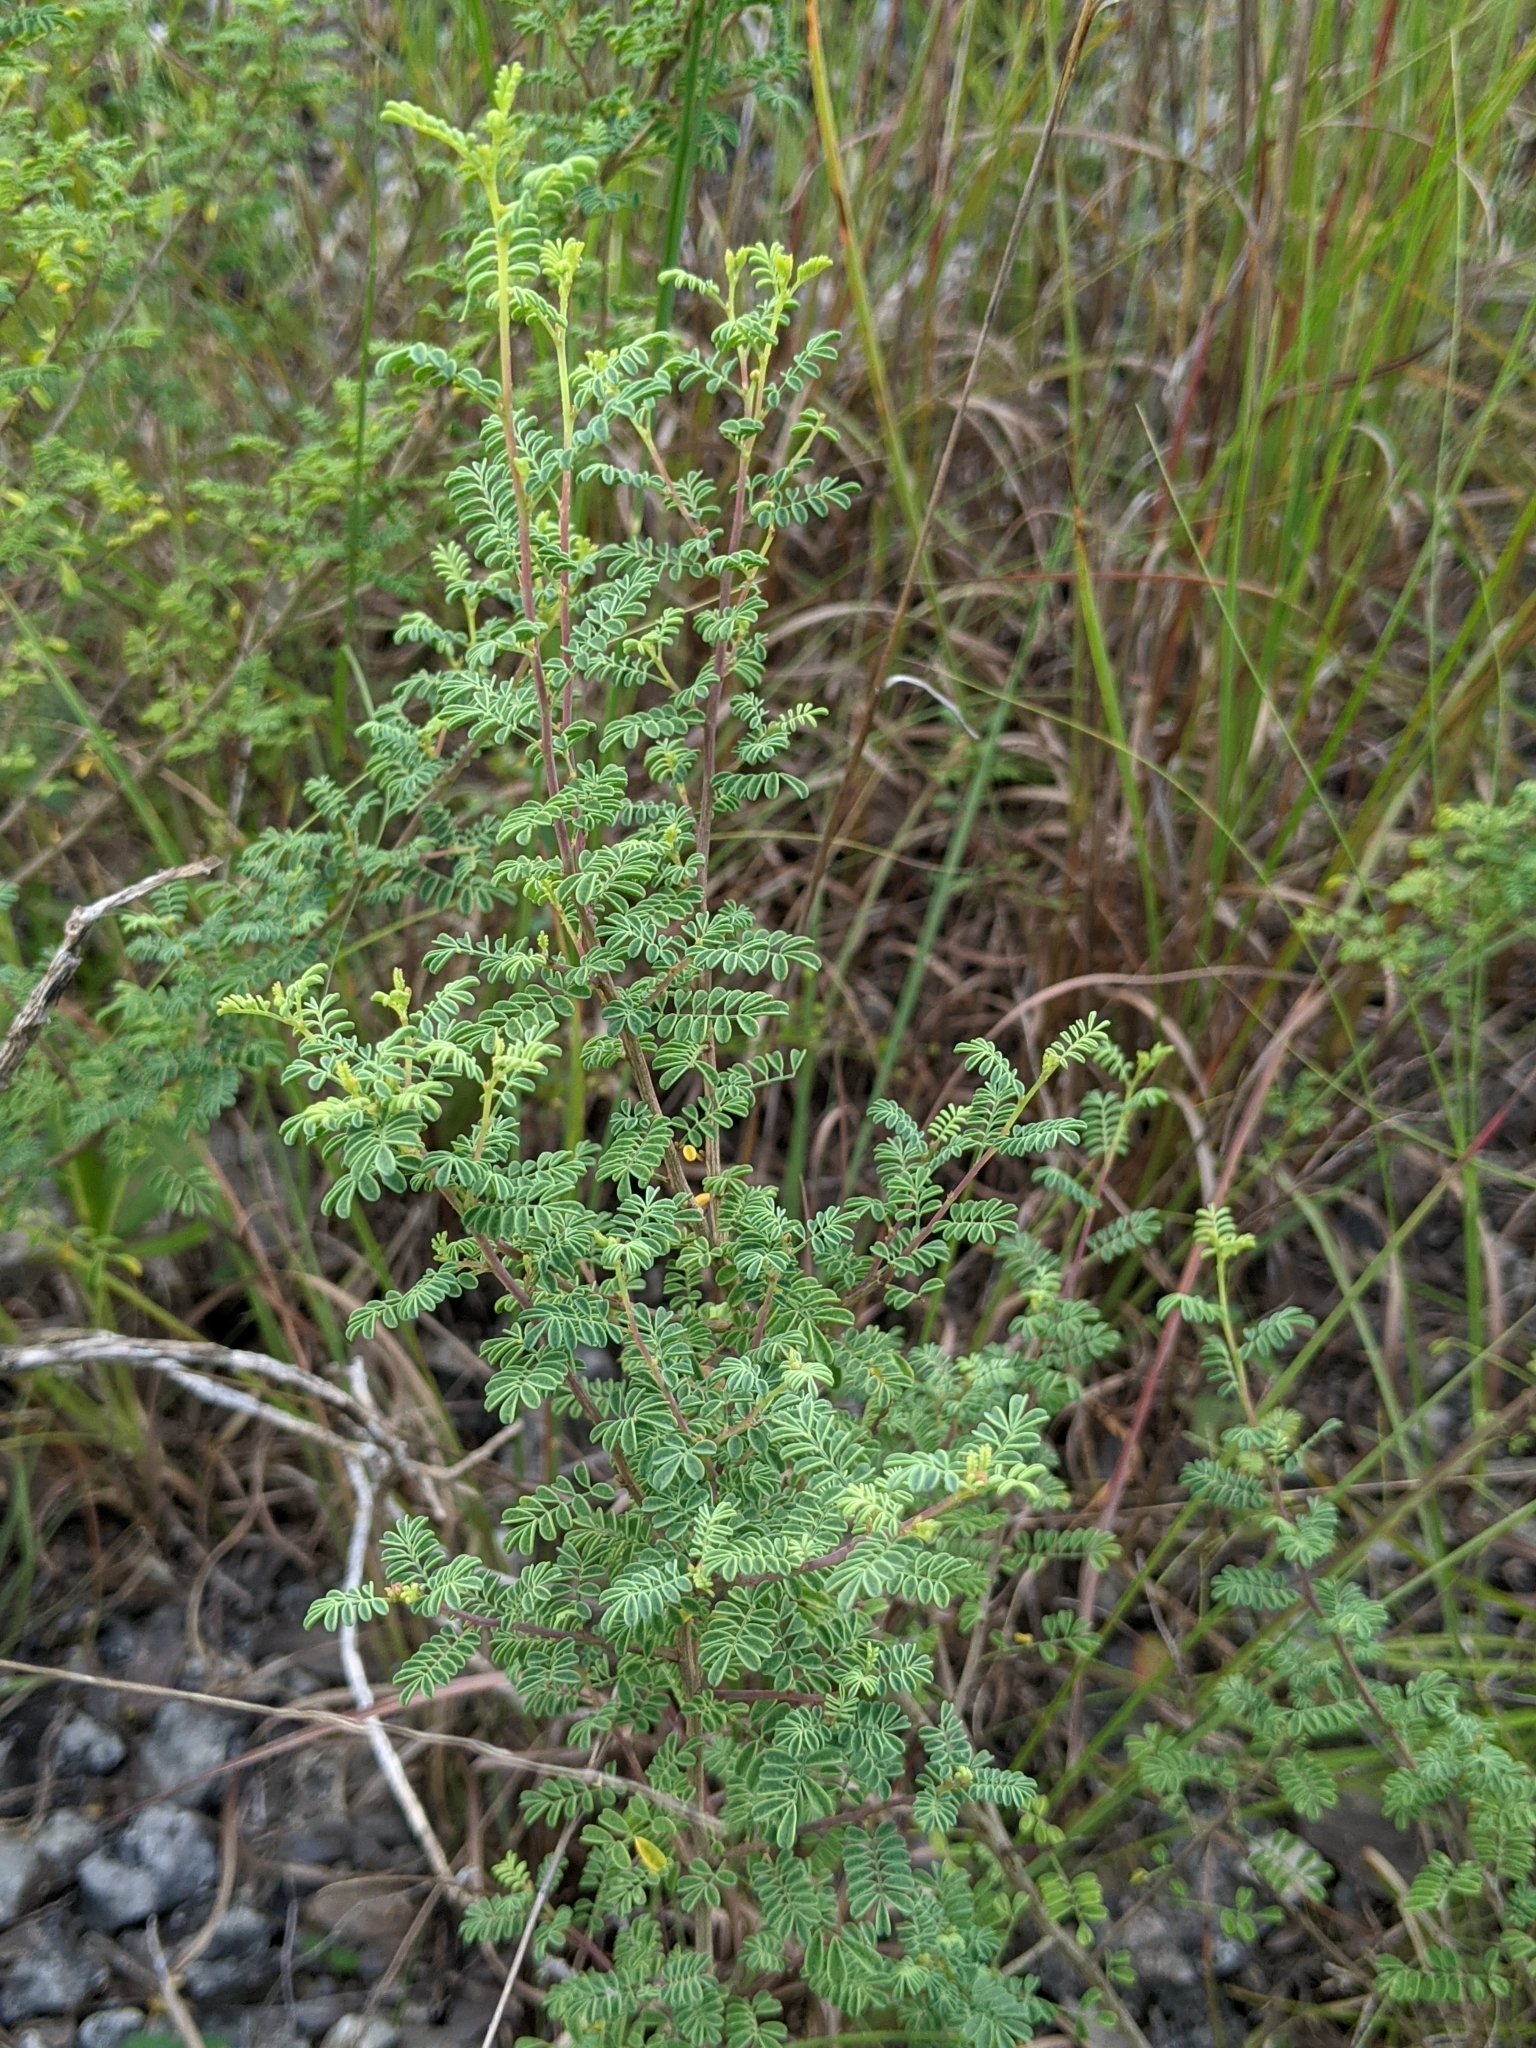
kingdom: Plantae
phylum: Tracheophyta
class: Magnoliopsida
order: Fabales
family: Fabaceae
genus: Dalea
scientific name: Dalea frutescens
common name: Black dalea
